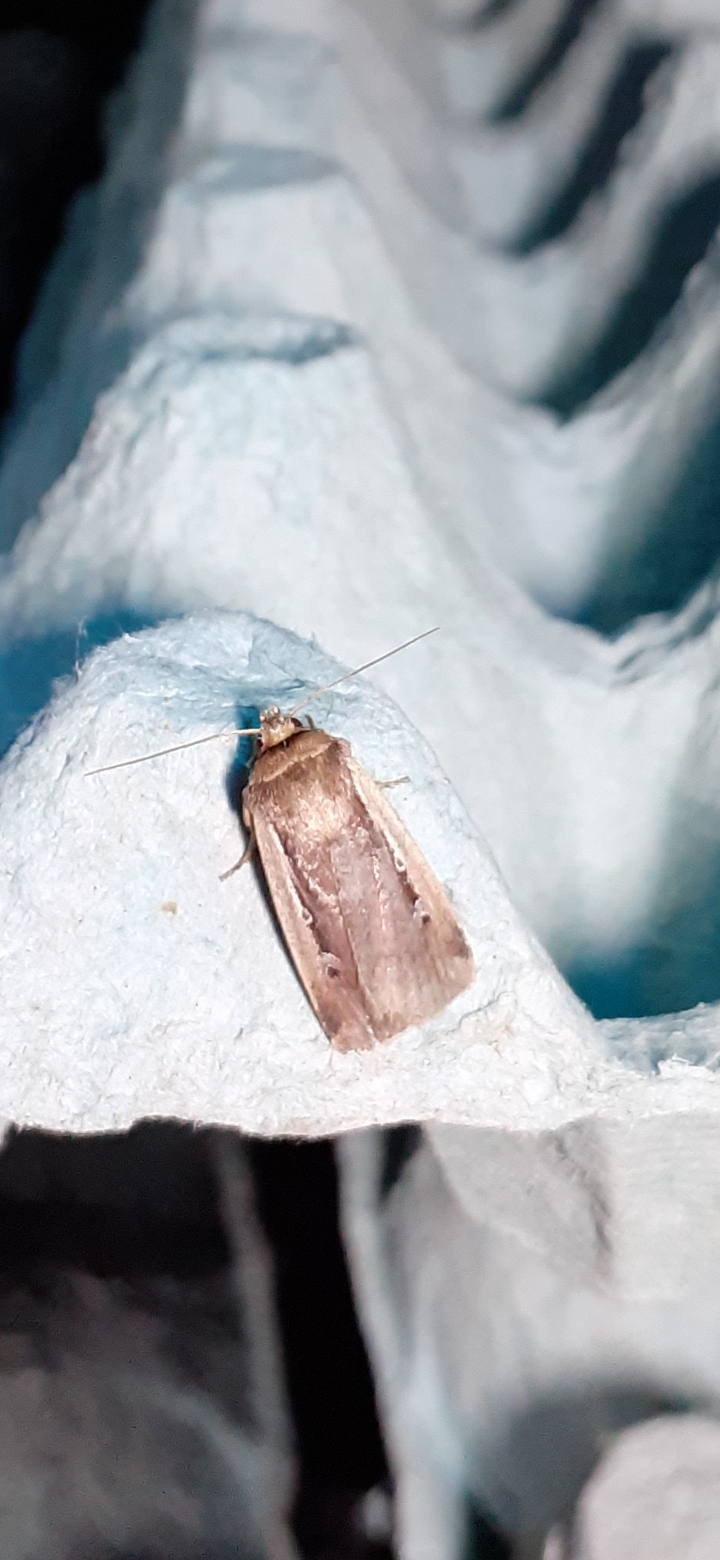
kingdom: Animalia
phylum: Arthropoda
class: Insecta
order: Lepidoptera
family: Noctuidae
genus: Ochropleura
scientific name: Ochropleura plecta
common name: Flame shoulder
